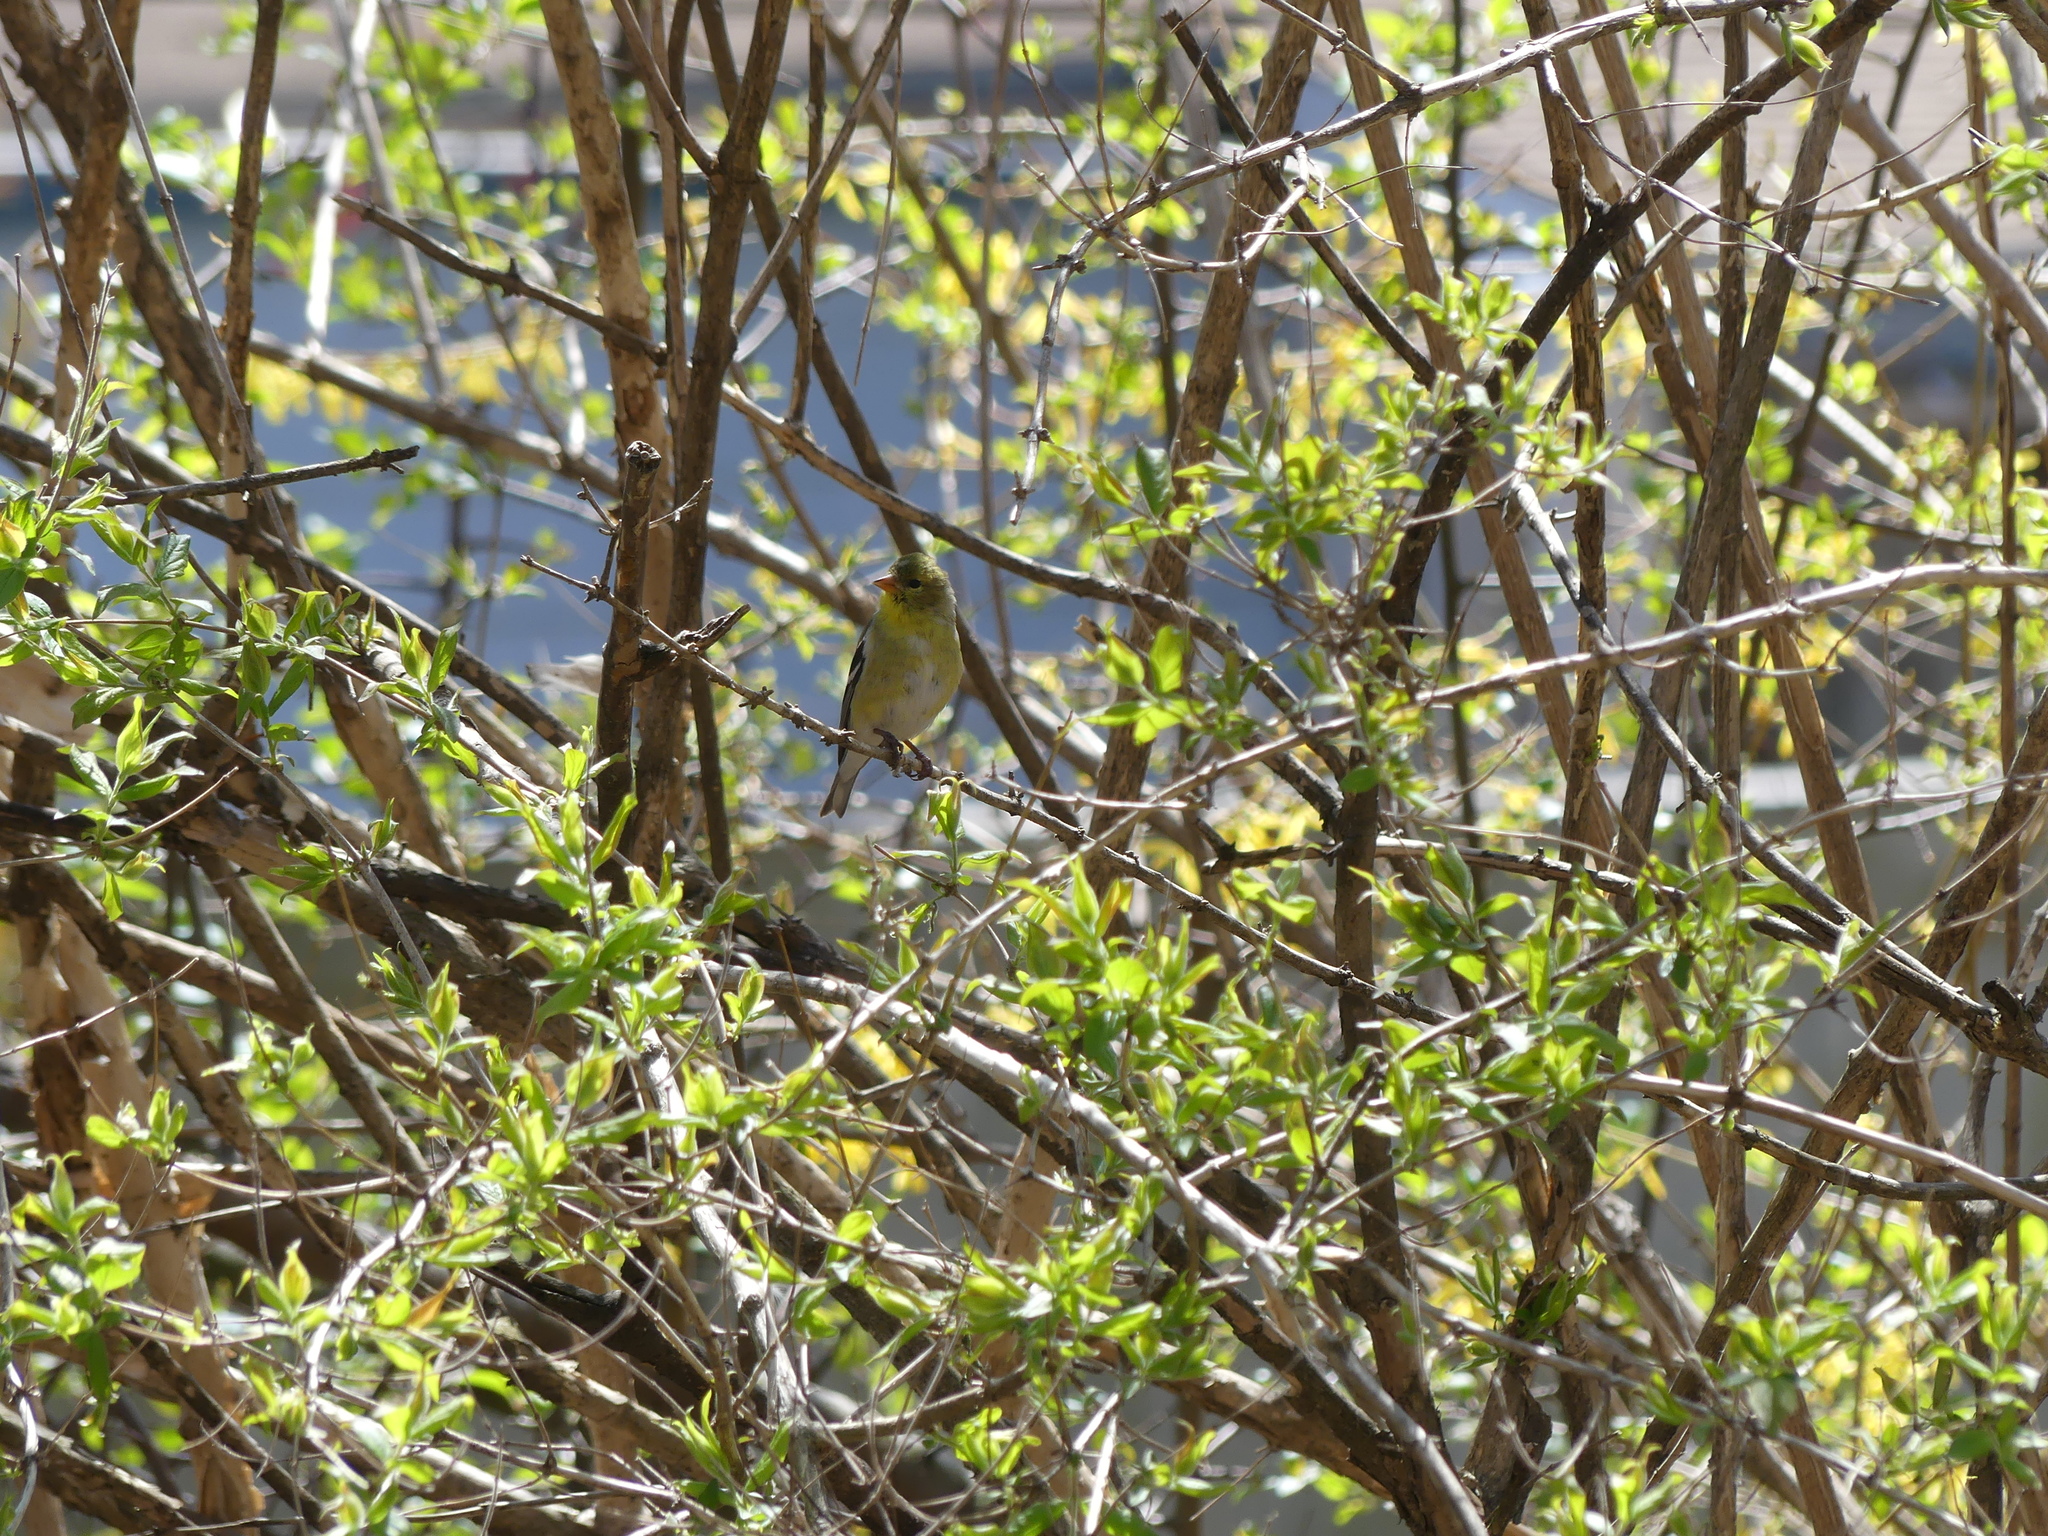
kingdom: Animalia
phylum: Chordata
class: Aves
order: Passeriformes
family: Fringillidae
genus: Spinus
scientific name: Spinus tristis
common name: American goldfinch
